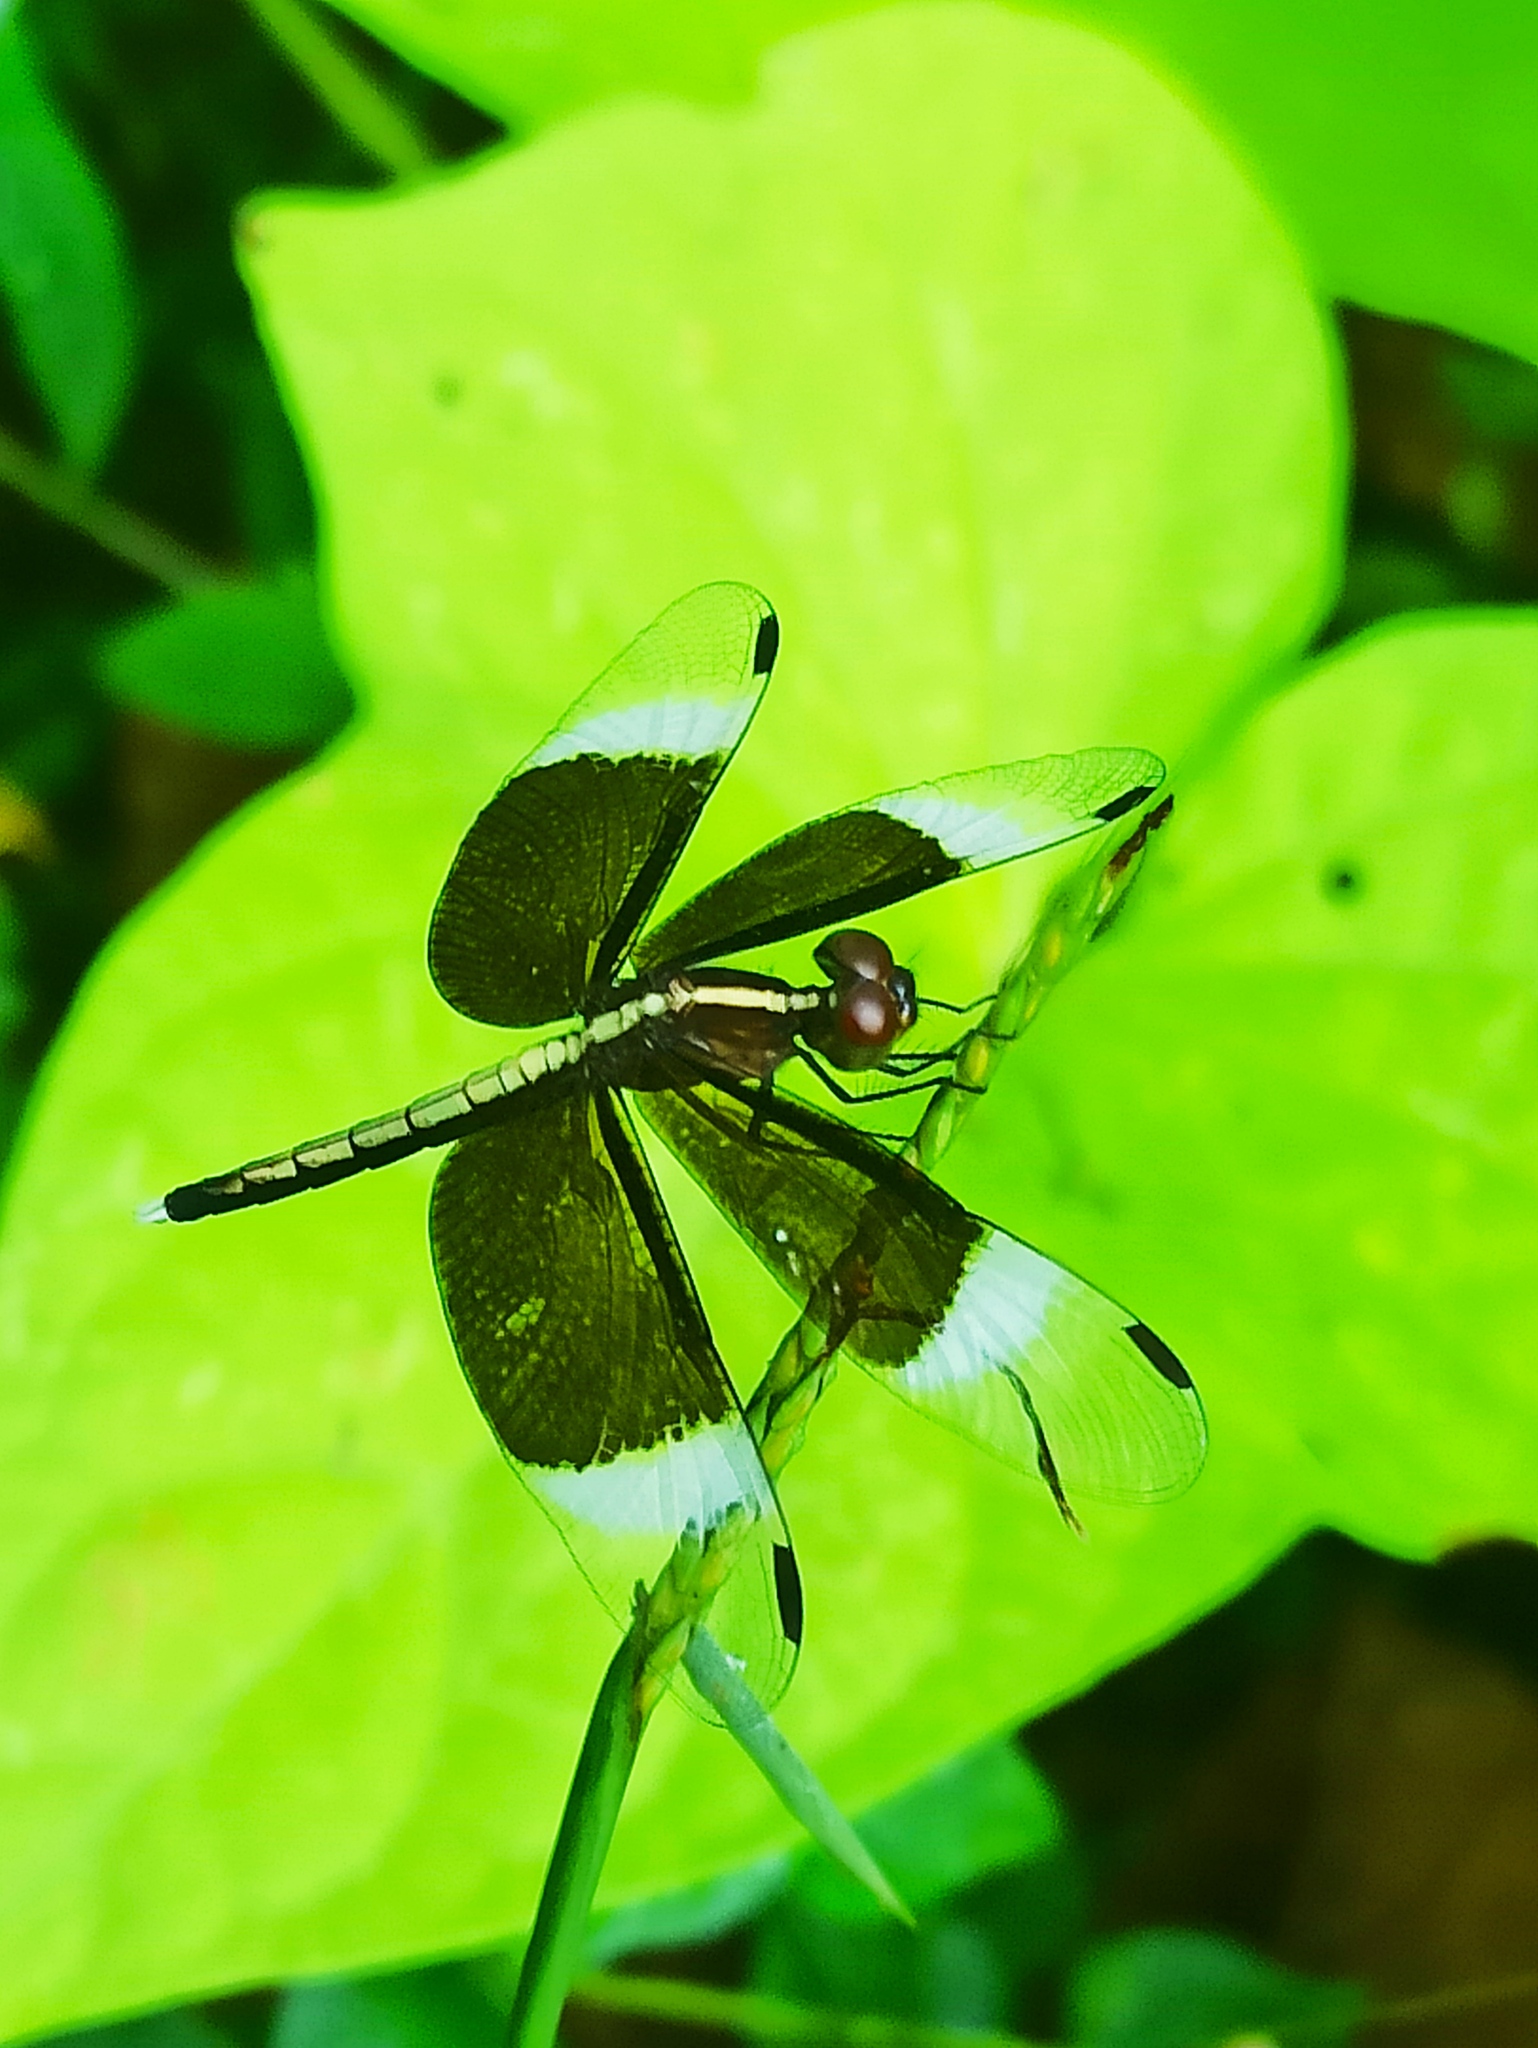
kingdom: Animalia
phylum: Arthropoda
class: Insecta
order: Odonata
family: Libellulidae
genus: Neurothemis
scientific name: Neurothemis tullia
